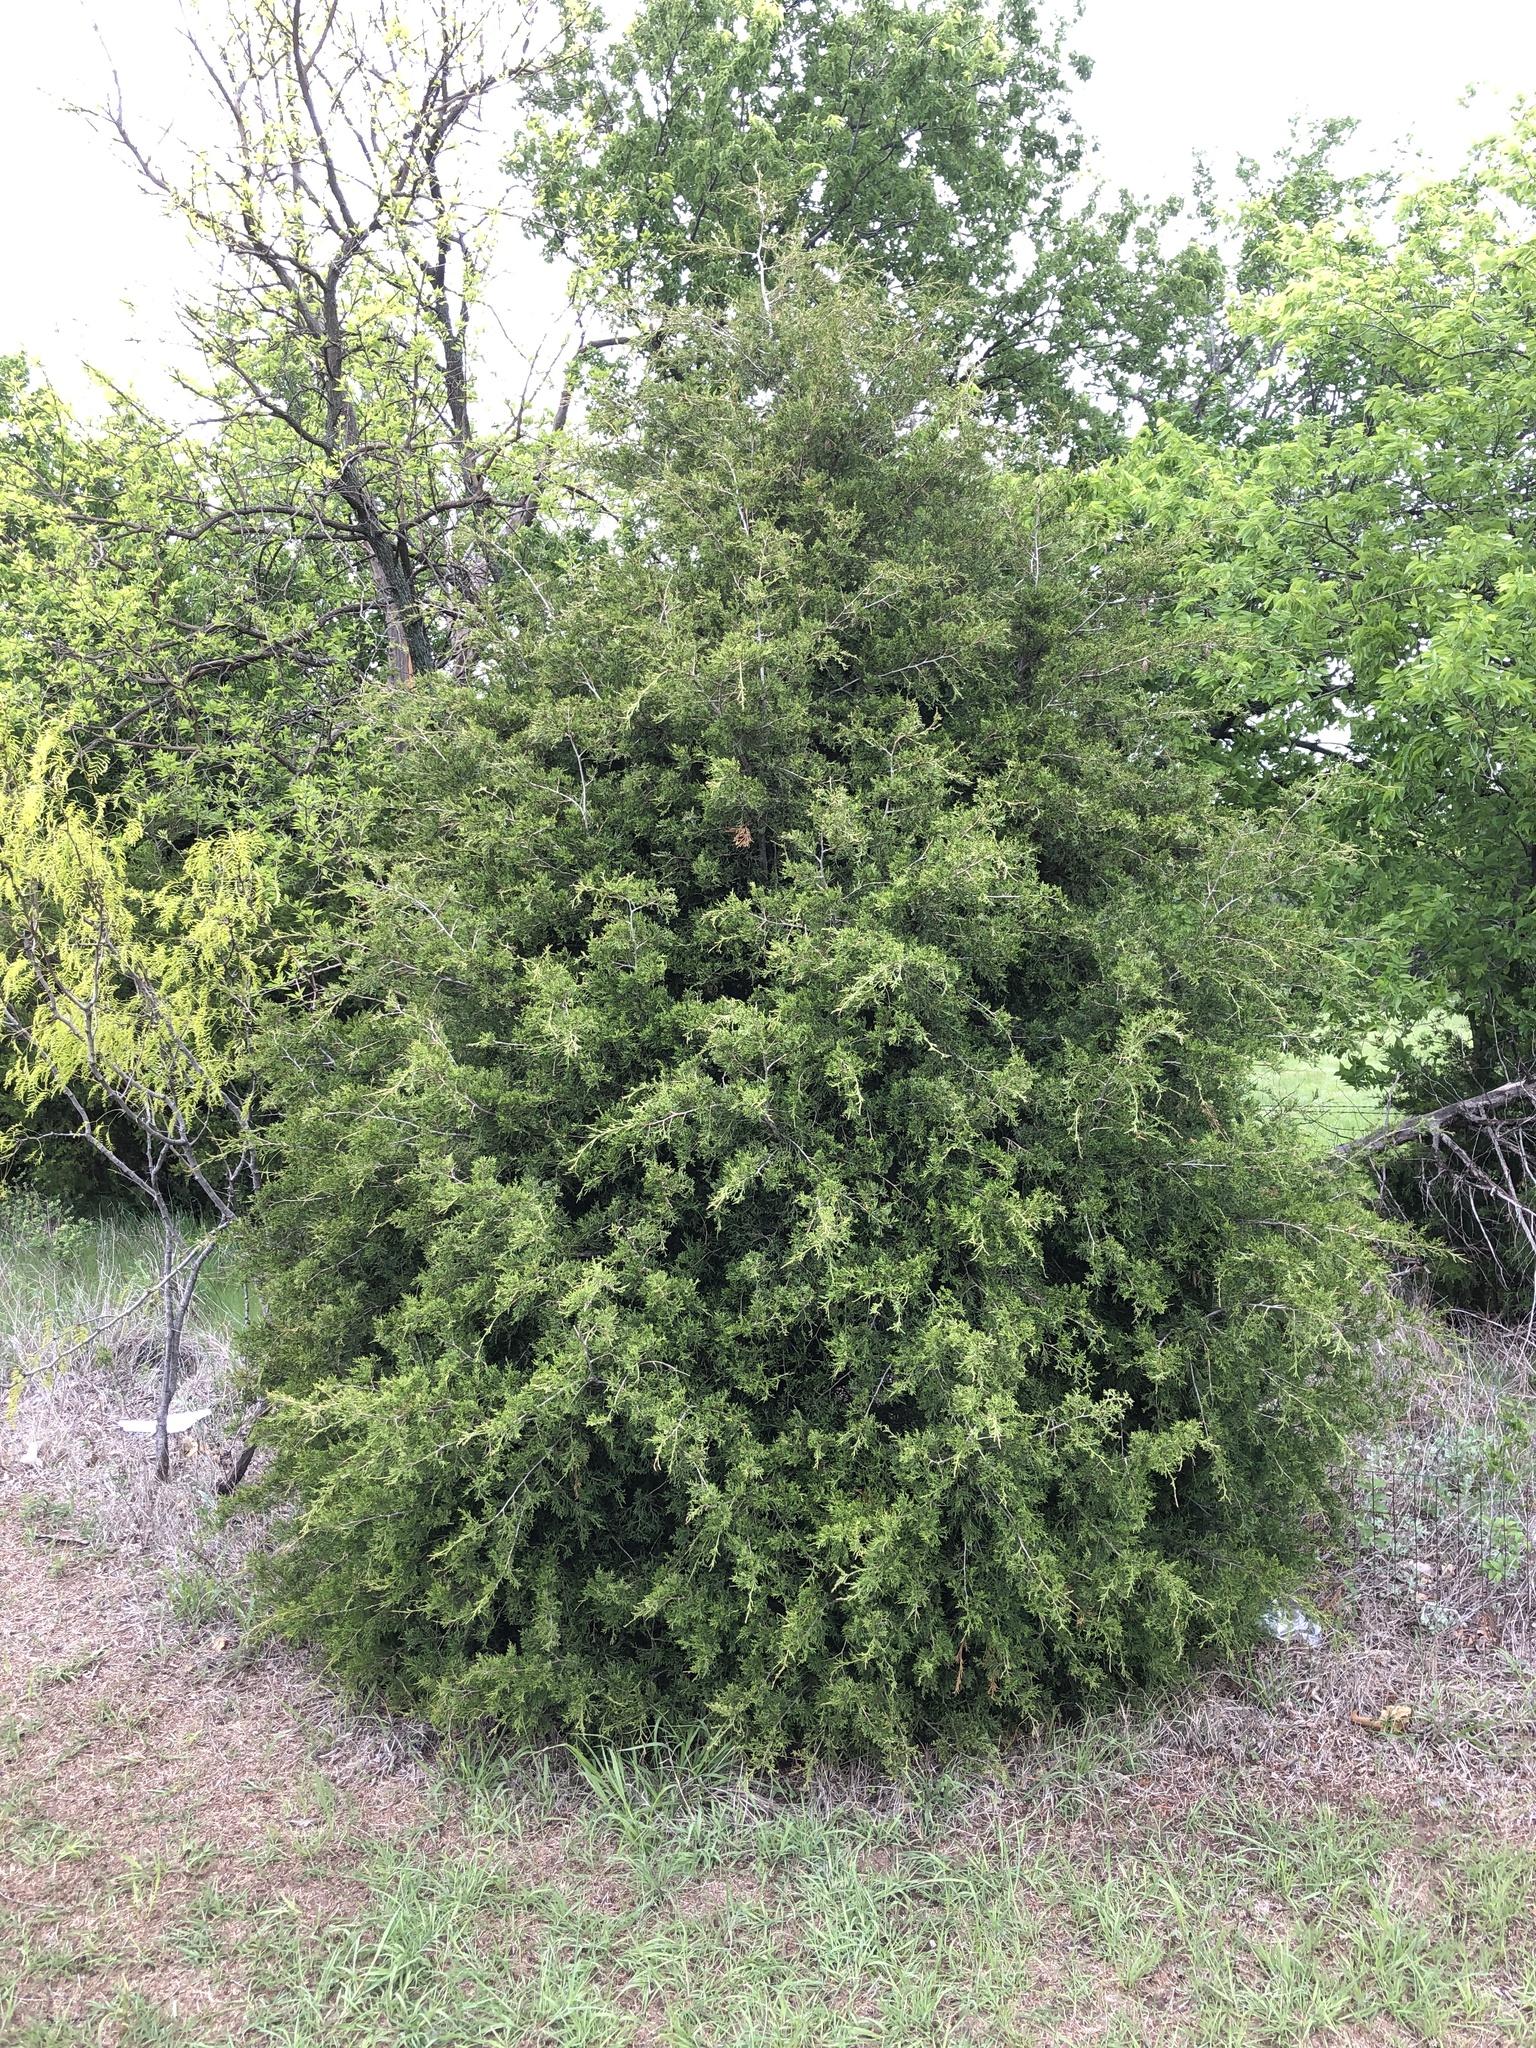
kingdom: Plantae
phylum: Tracheophyta
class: Pinopsida
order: Pinales
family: Cupressaceae
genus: Juniperus
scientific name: Juniperus virginiana
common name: Red juniper
